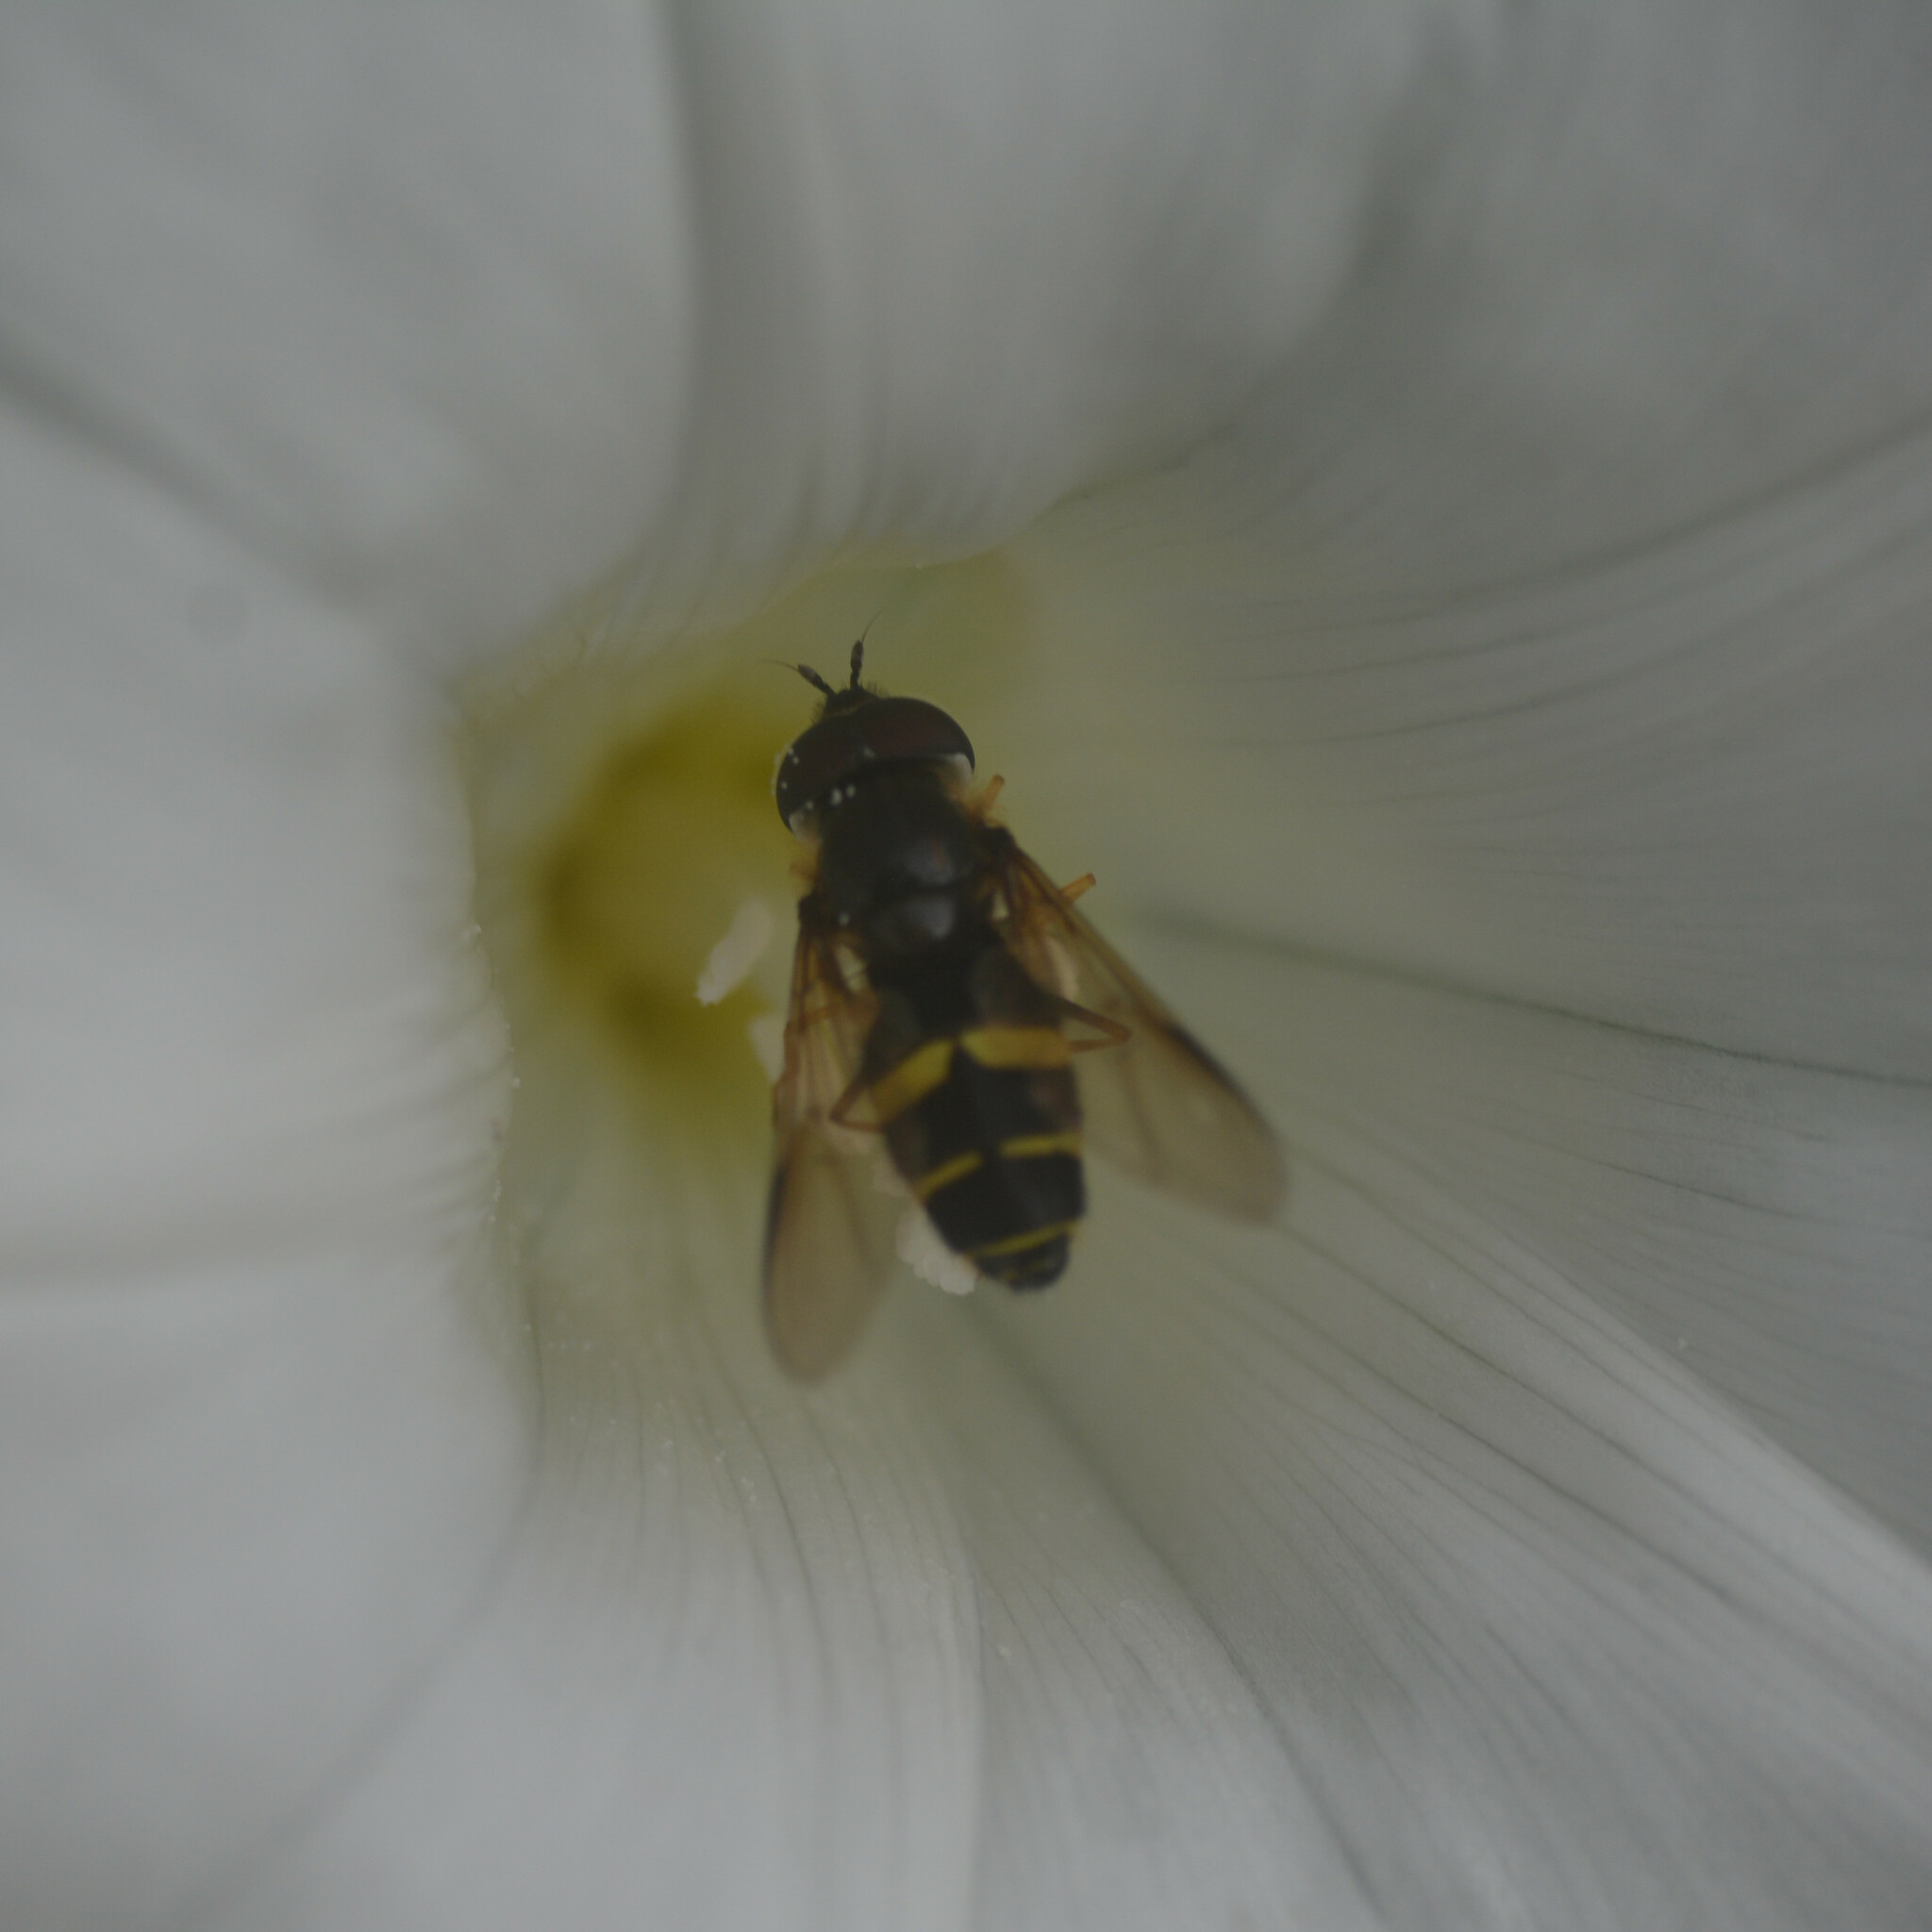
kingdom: Animalia
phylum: Arthropoda
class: Insecta
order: Diptera
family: Syrphidae
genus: Dasysyrphus
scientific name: Dasysyrphus tricinctus
